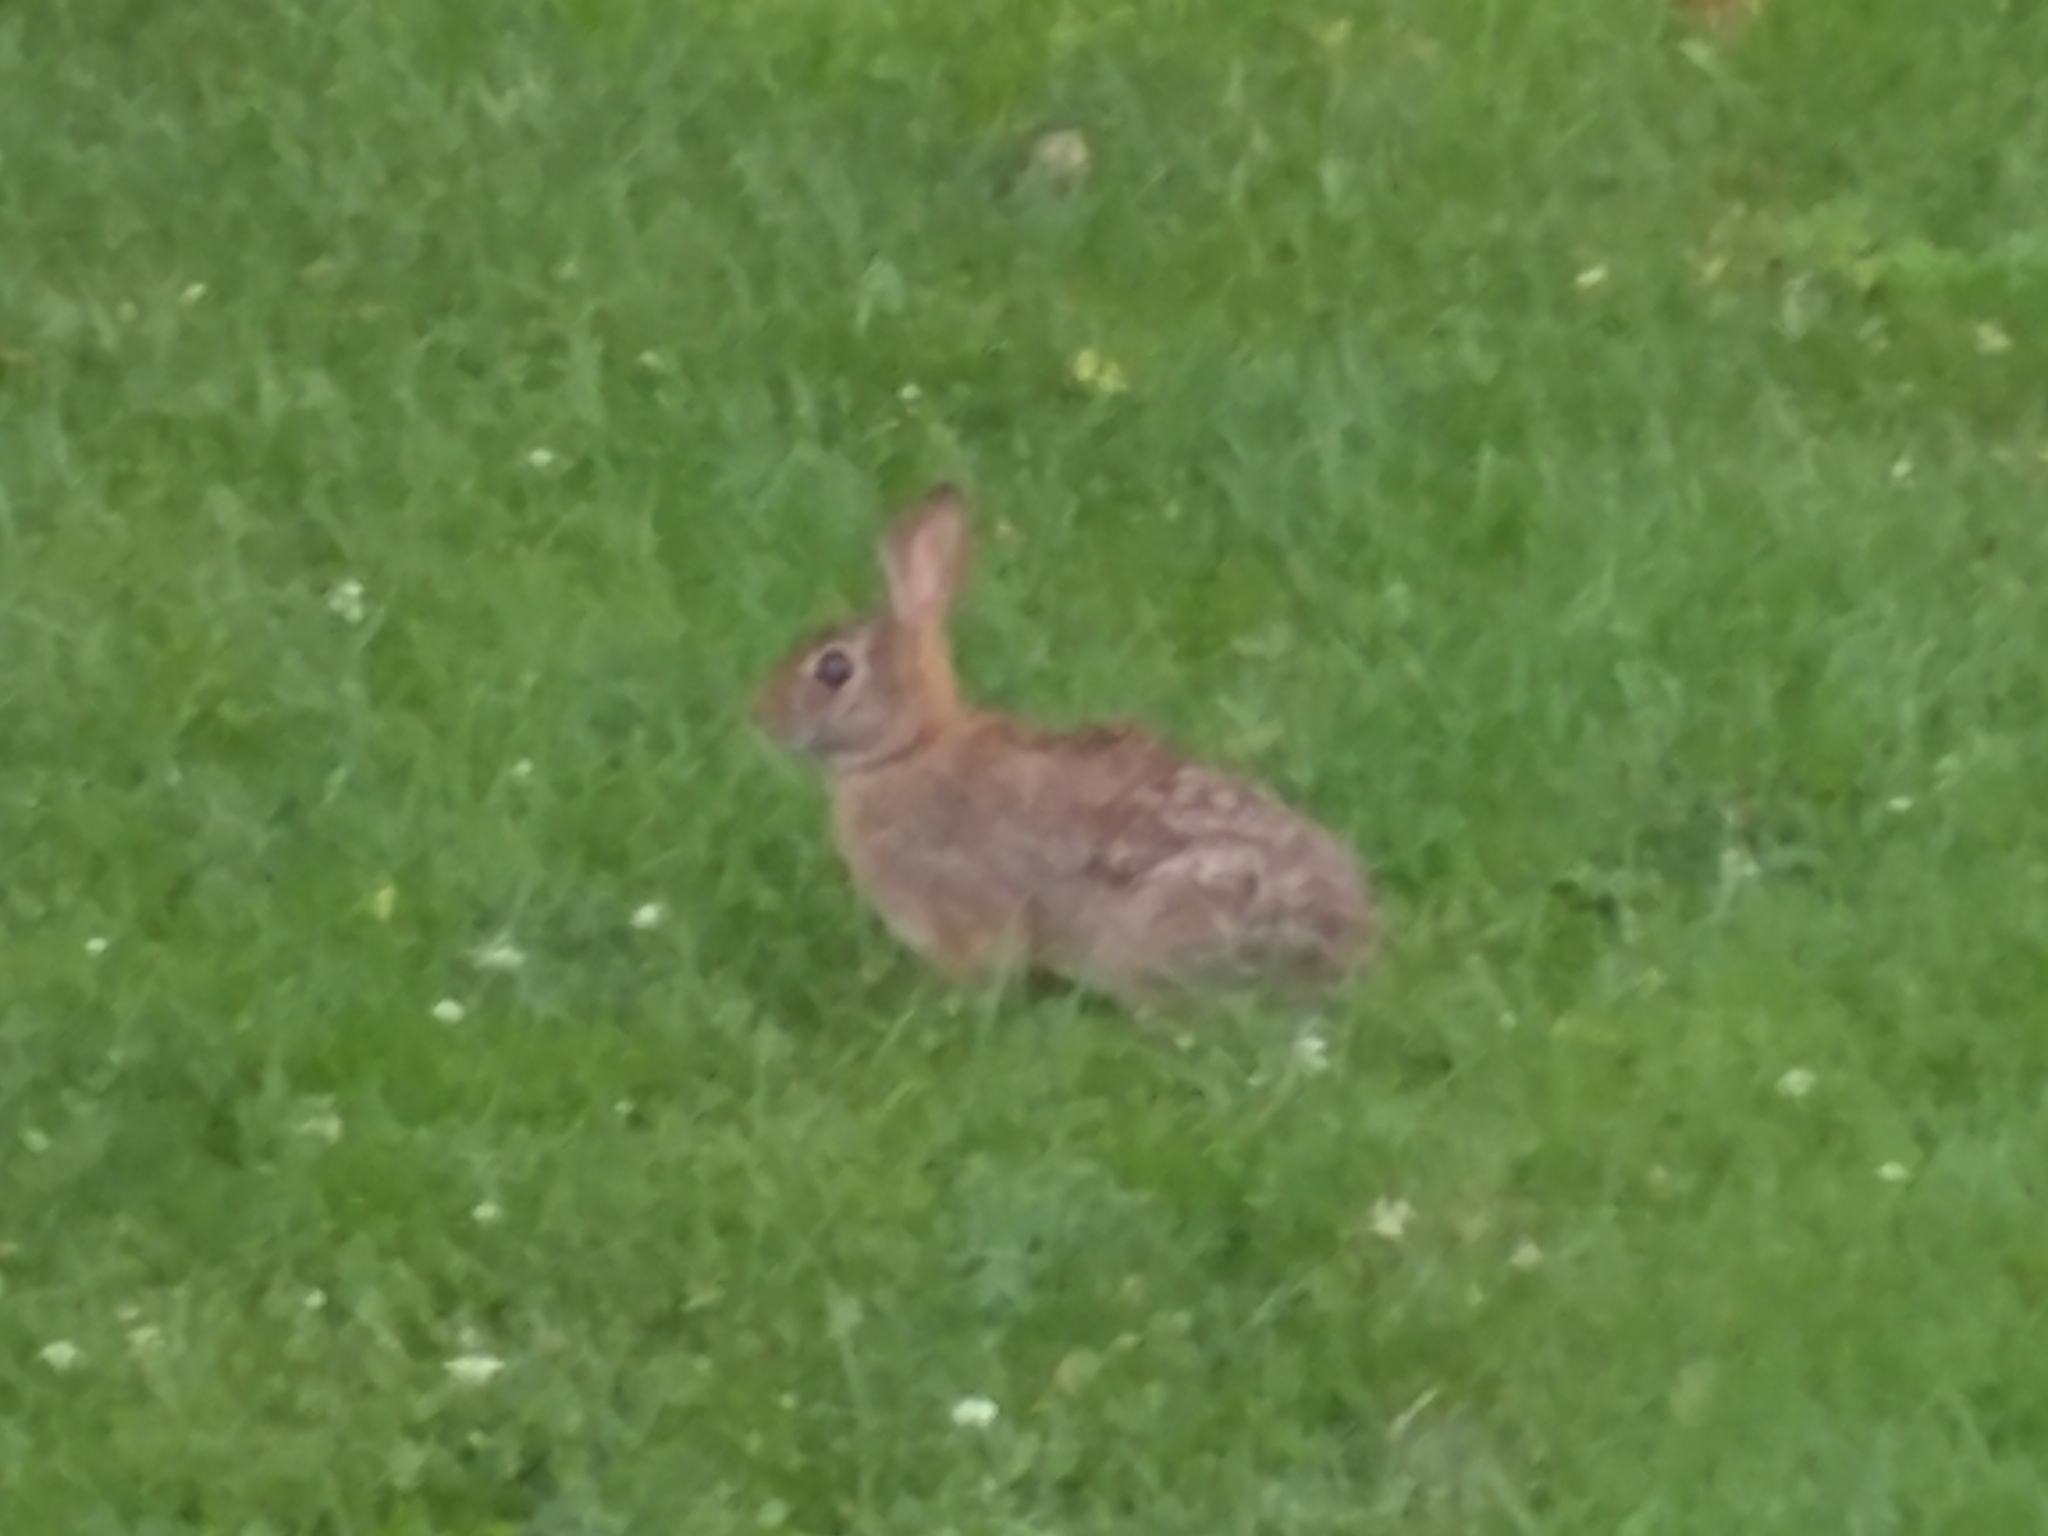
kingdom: Animalia
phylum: Chordata
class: Mammalia
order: Lagomorpha
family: Leporidae
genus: Sylvilagus
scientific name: Sylvilagus floridanus
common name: Eastern cottontail
